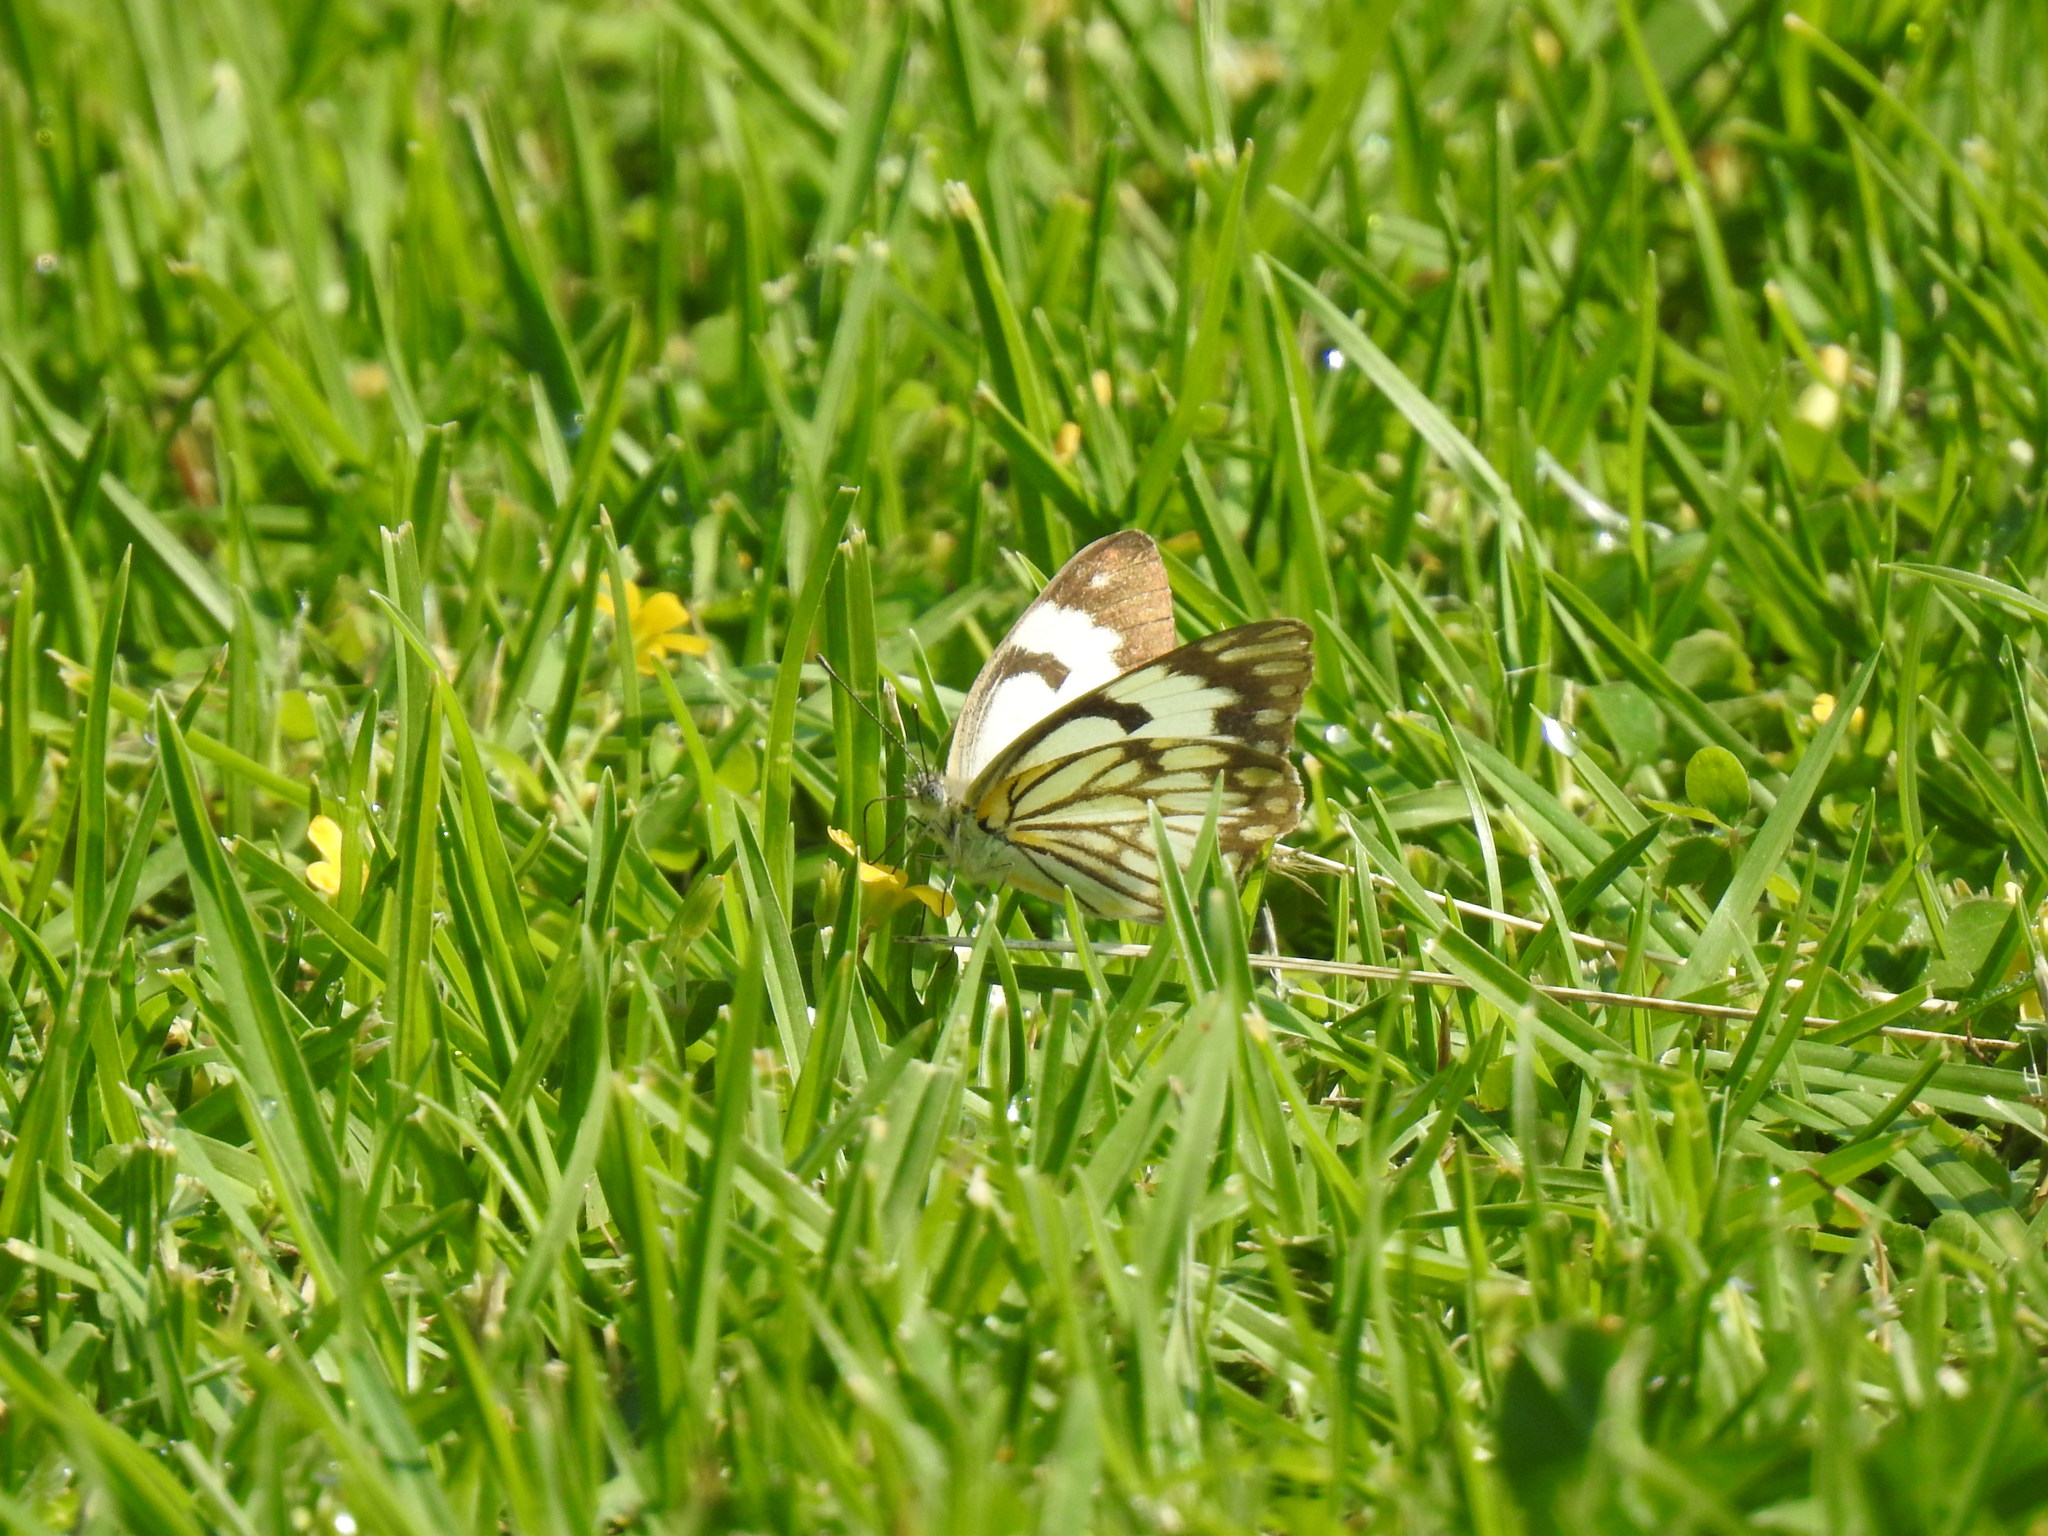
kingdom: Animalia
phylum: Arthropoda
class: Insecta
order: Lepidoptera
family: Pieridae
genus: Belenois
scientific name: Belenois aurota
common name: Brown-veined white
